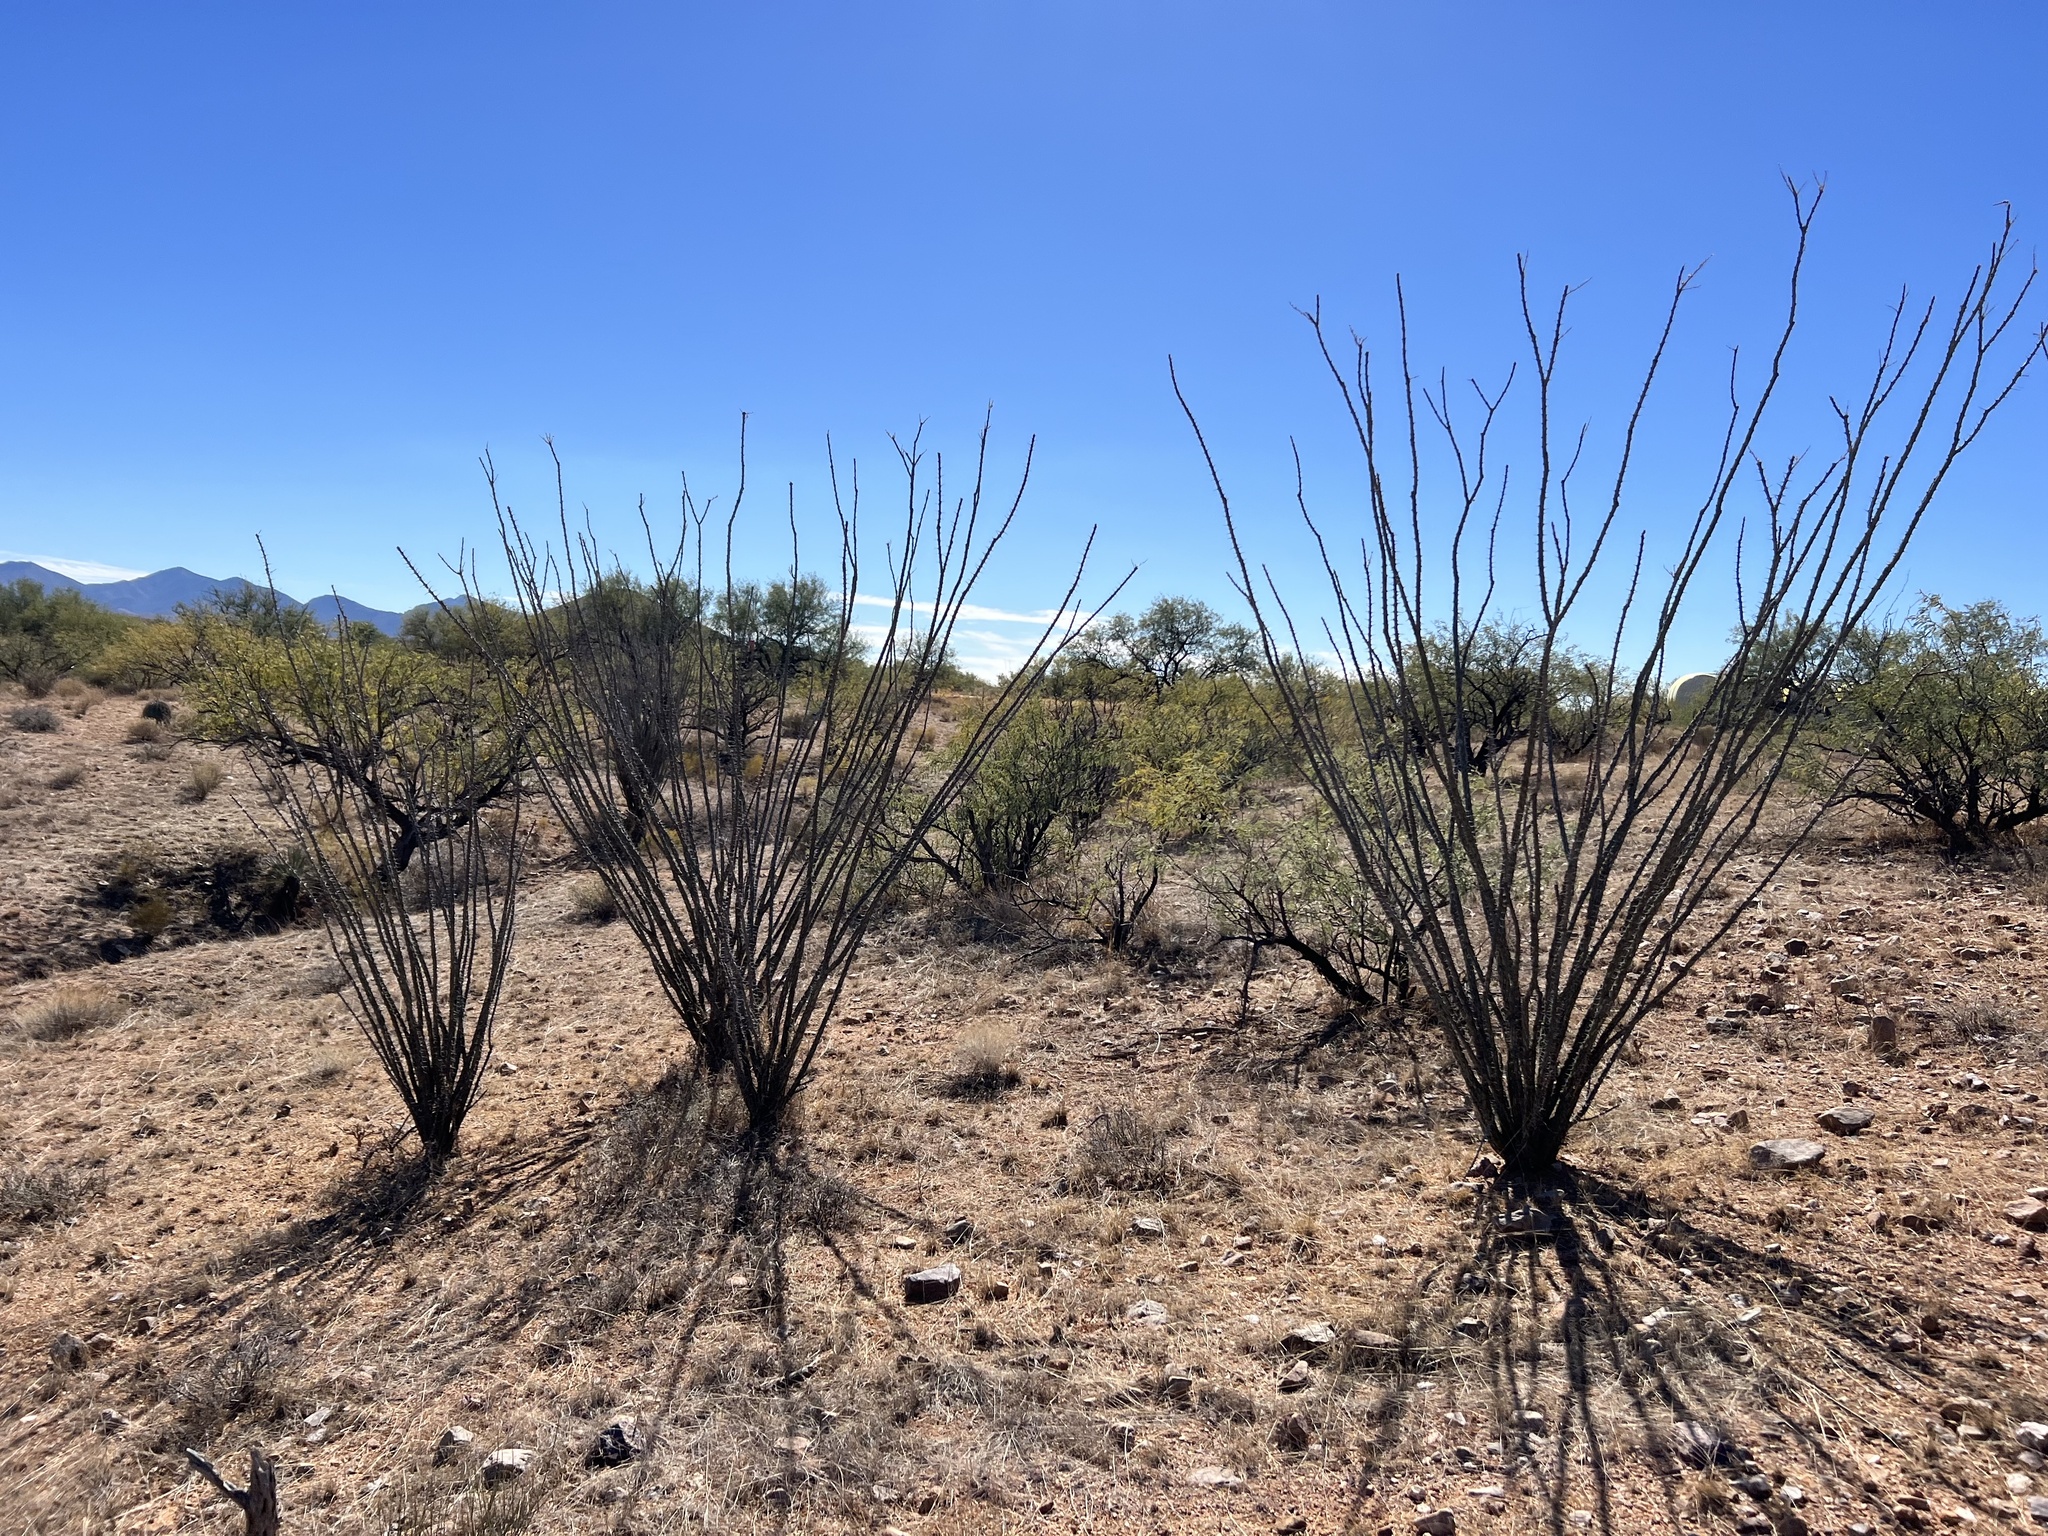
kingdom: Plantae
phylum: Tracheophyta
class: Magnoliopsida
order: Ericales
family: Fouquieriaceae
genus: Fouquieria
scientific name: Fouquieria splendens
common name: Vine-cactus
